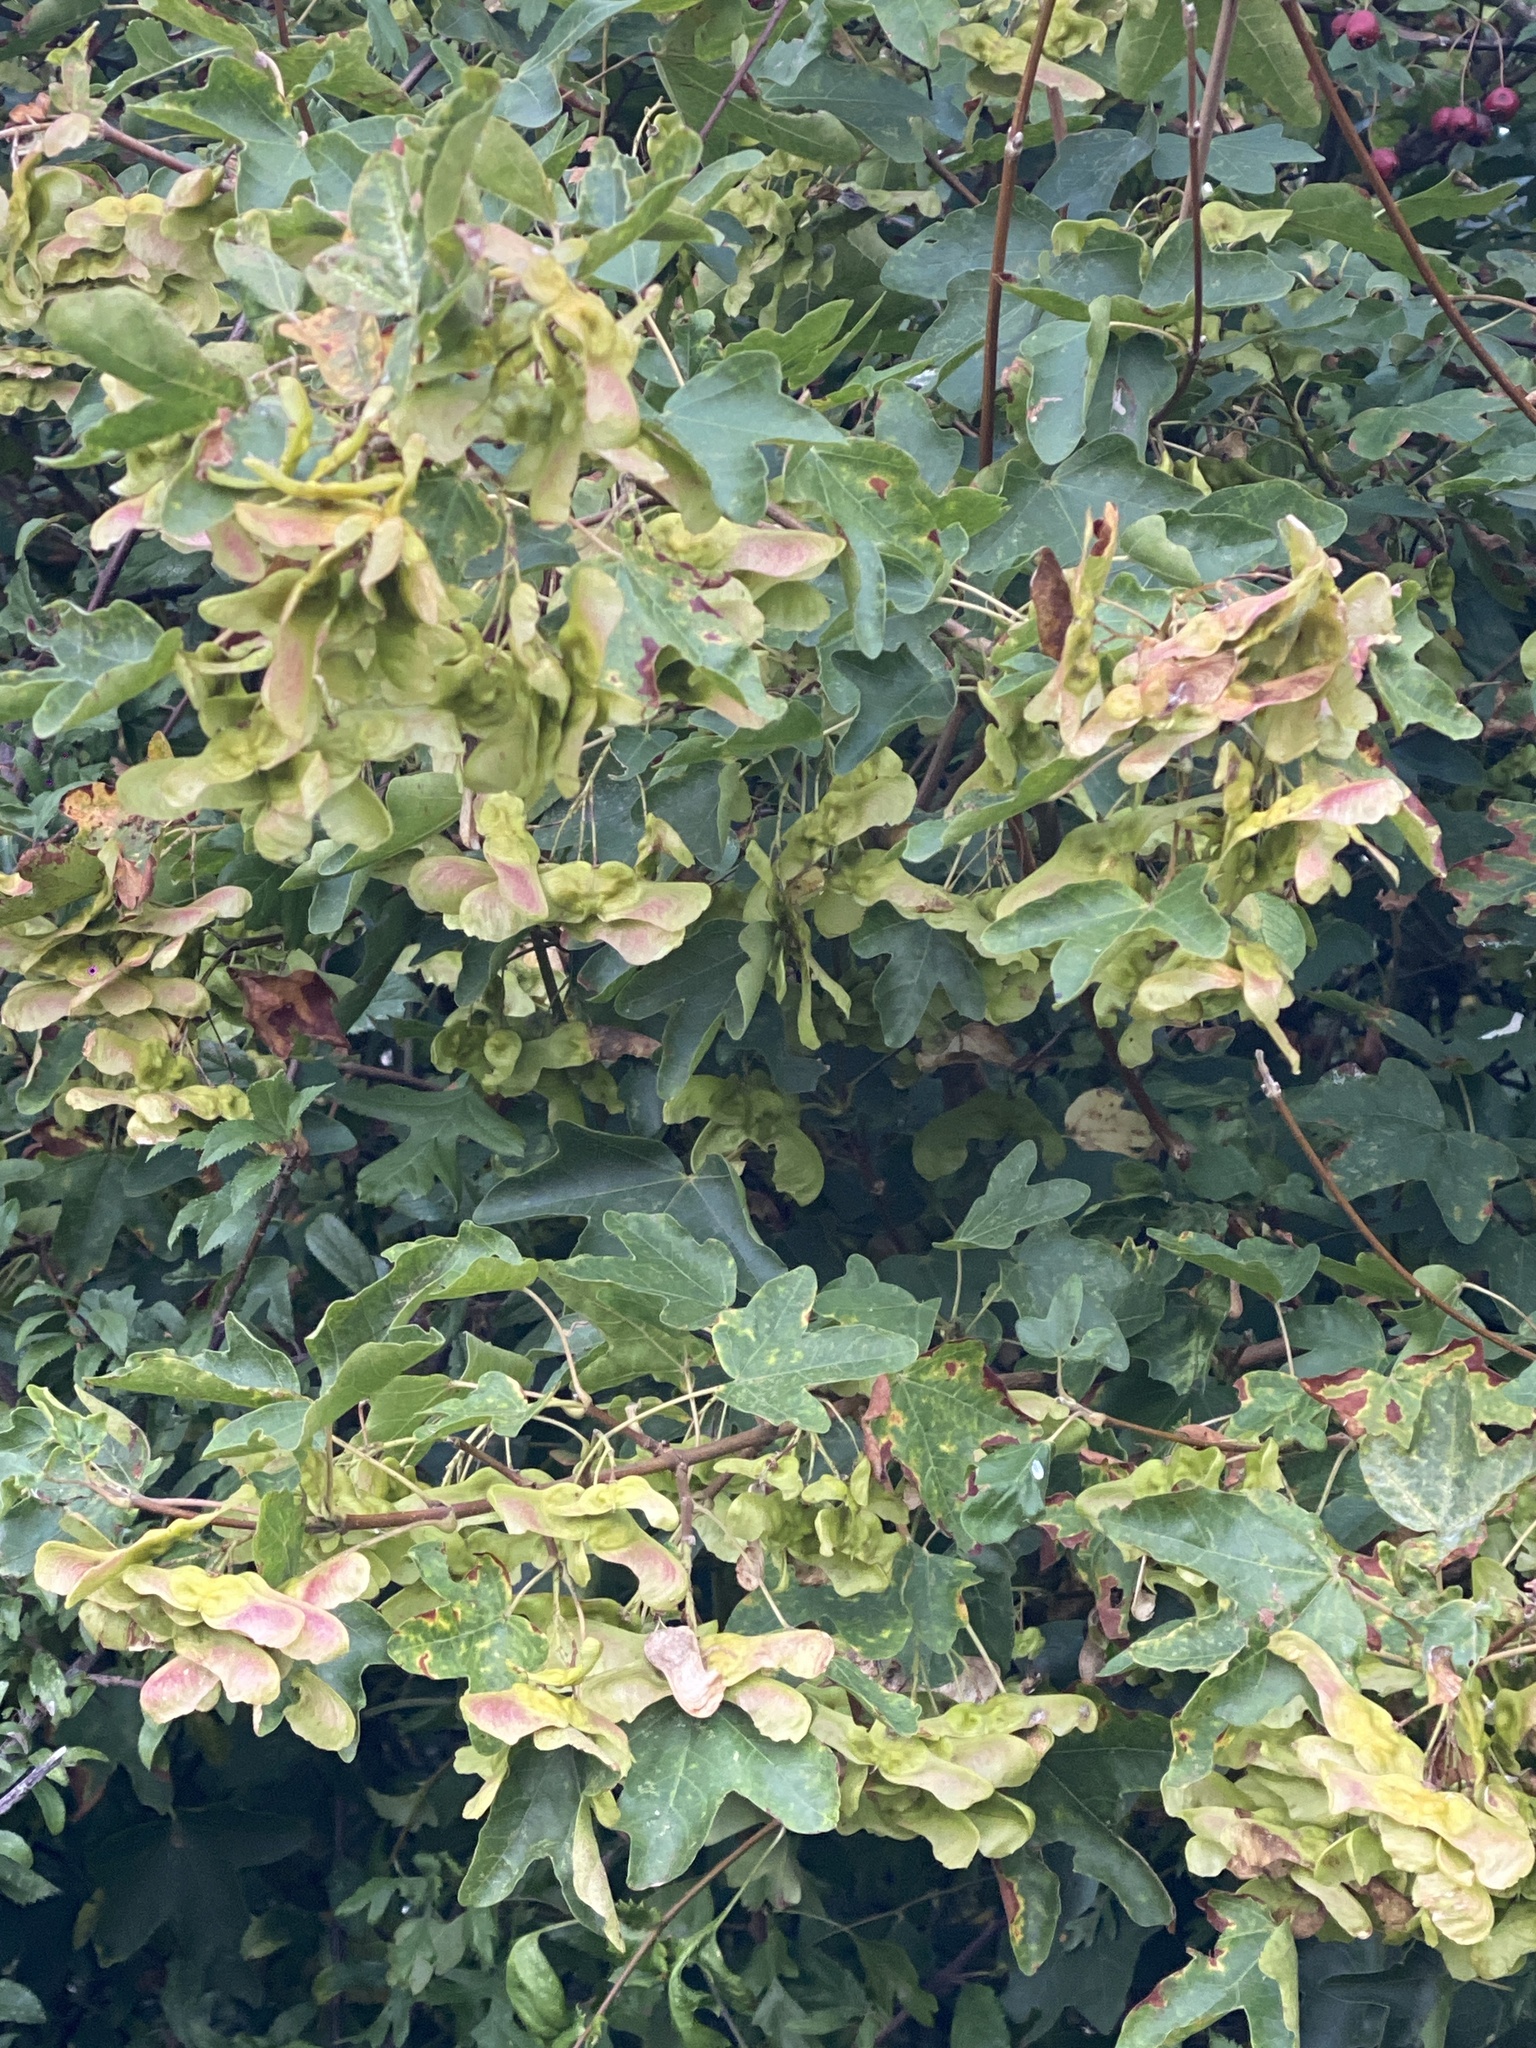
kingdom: Plantae
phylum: Tracheophyta
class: Magnoliopsida
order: Sapindales
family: Sapindaceae
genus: Acer
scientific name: Acer campestre
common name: Field maple
